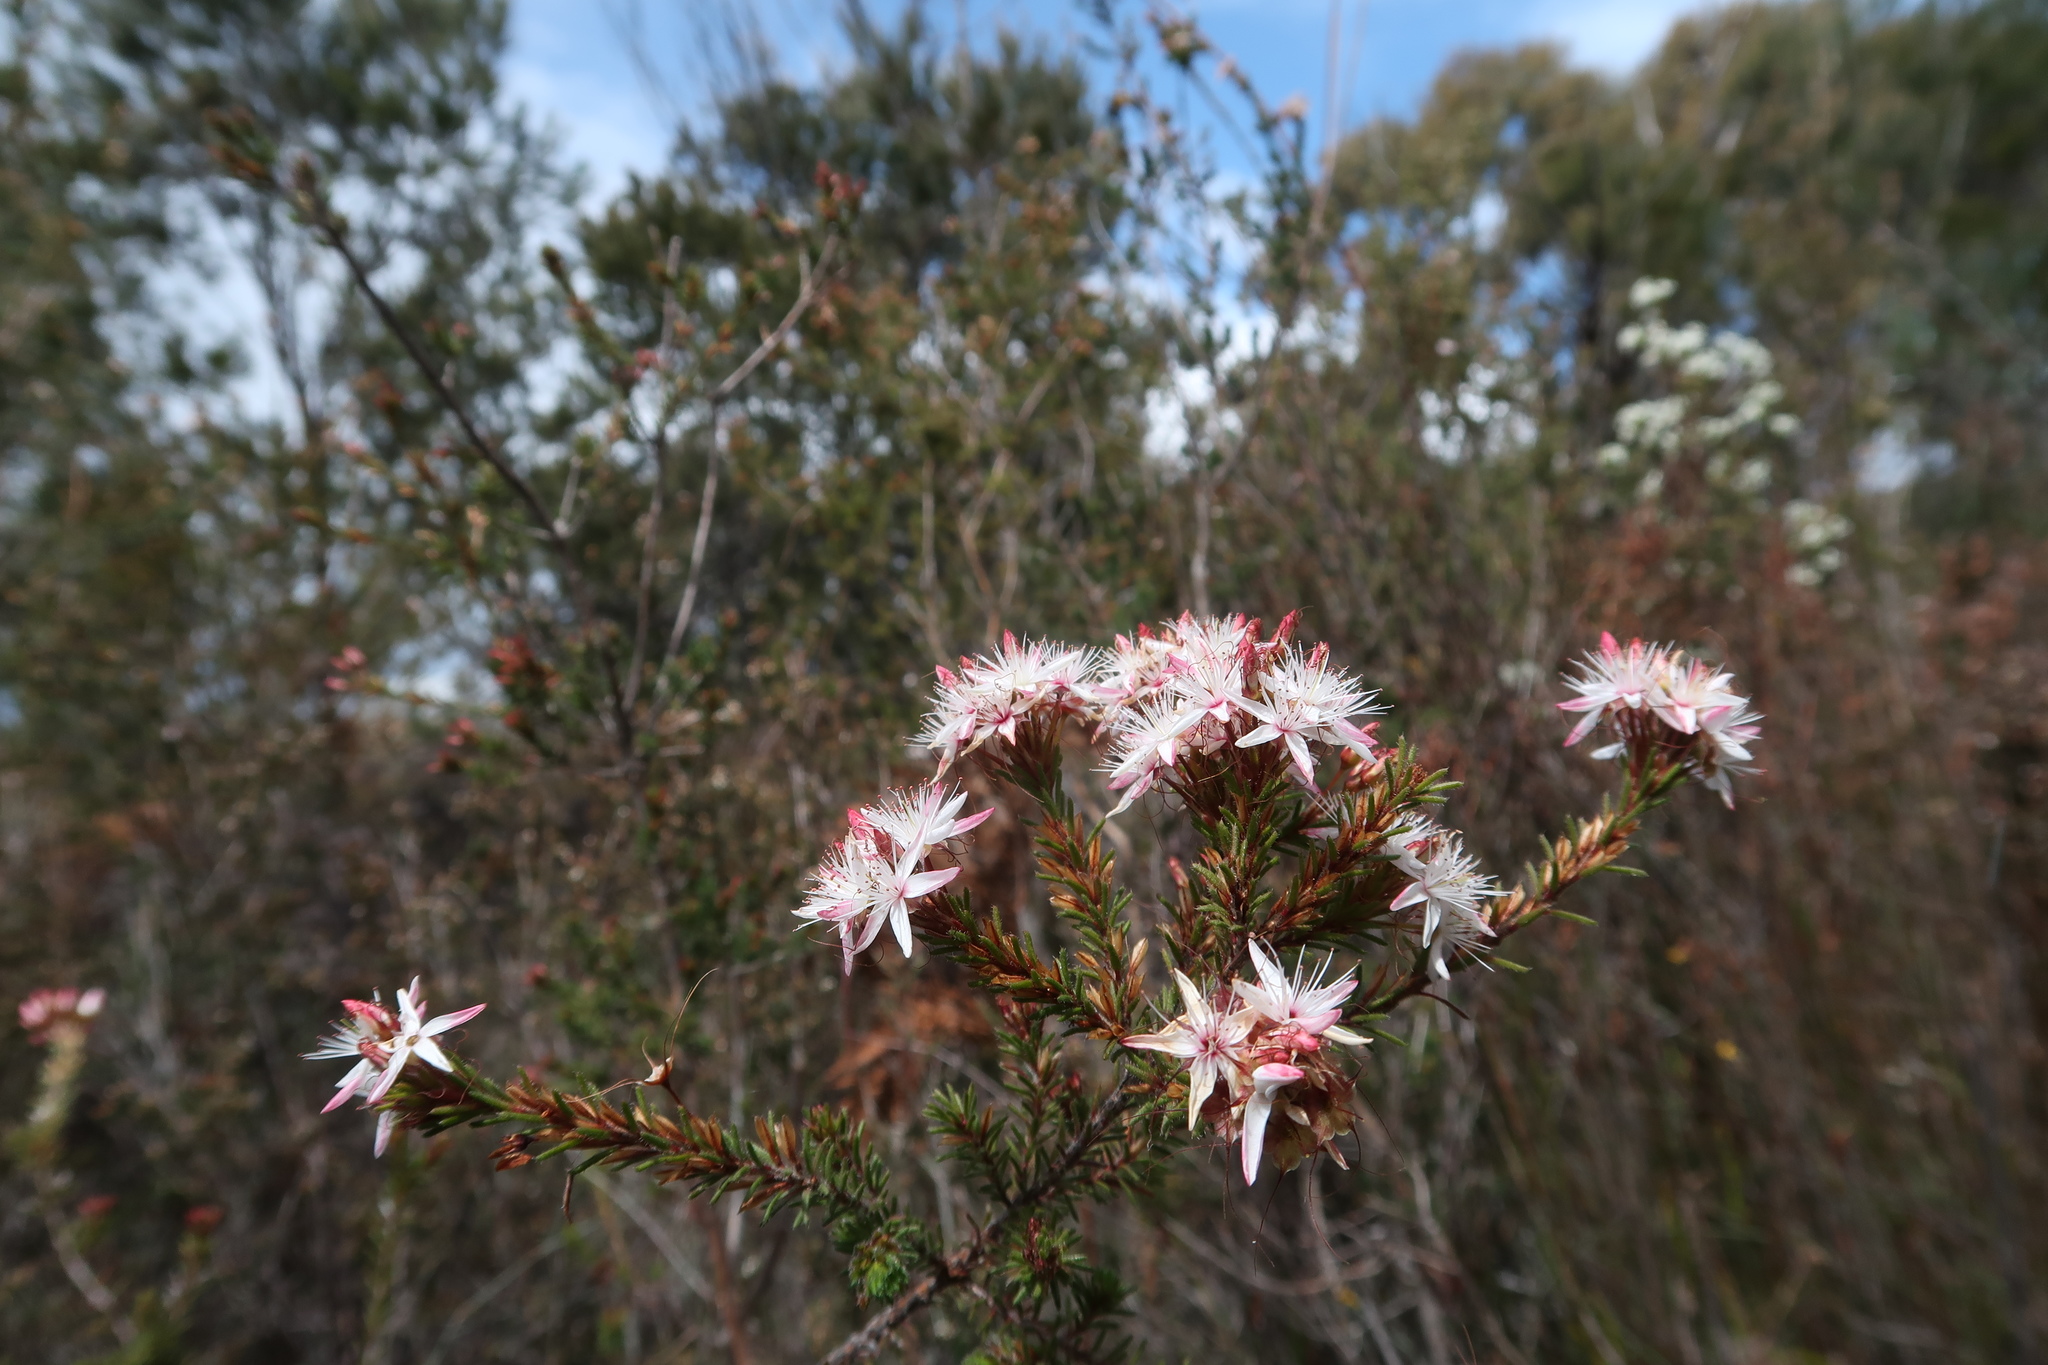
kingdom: Plantae
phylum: Tracheophyta
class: Magnoliopsida
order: Myrtales
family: Myrtaceae
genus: Calytrix
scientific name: Calytrix tetragona
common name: Common fringe myrtle
